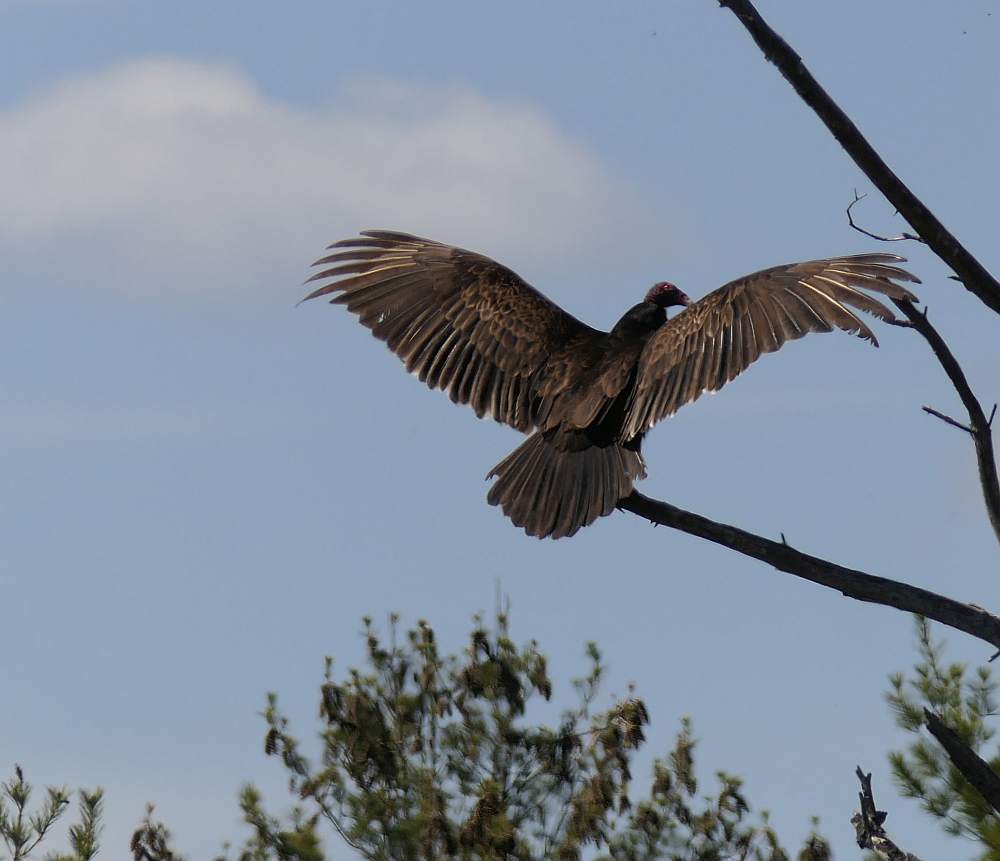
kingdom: Animalia
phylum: Chordata
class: Aves
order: Accipitriformes
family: Cathartidae
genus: Cathartes
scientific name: Cathartes aura
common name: Turkey vulture
